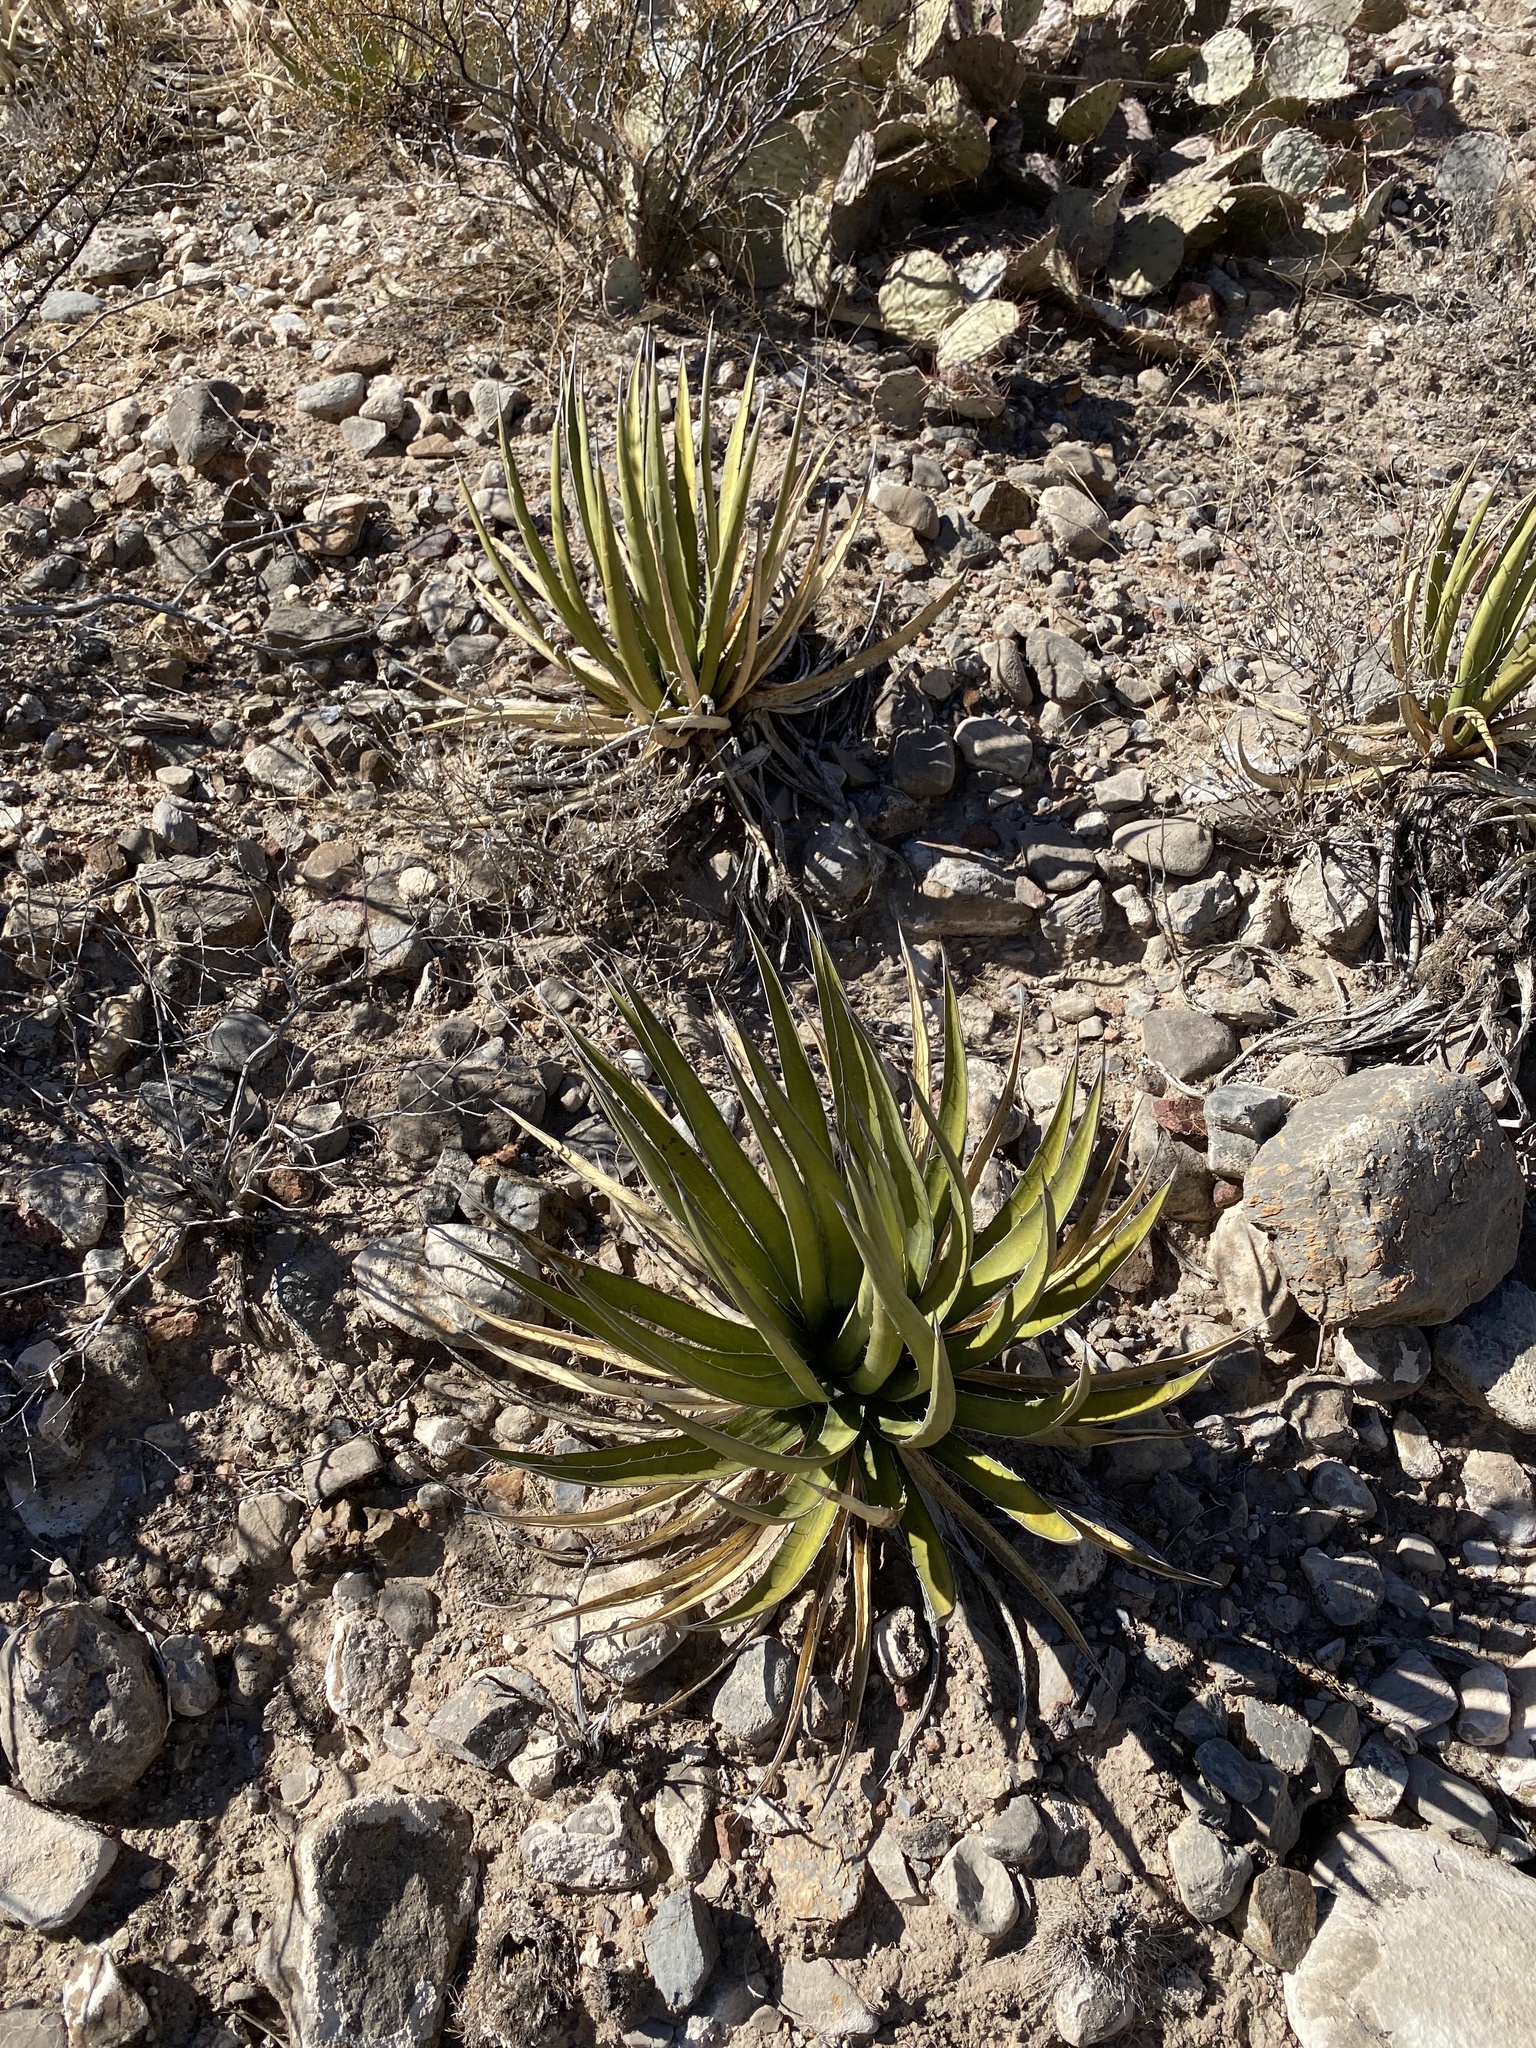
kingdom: Plantae
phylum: Tracheophyta
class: Liliopsida
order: Asparagales
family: Asparagaceae
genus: Agave
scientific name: Agave lechuguilla
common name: Lecheguilla agave
